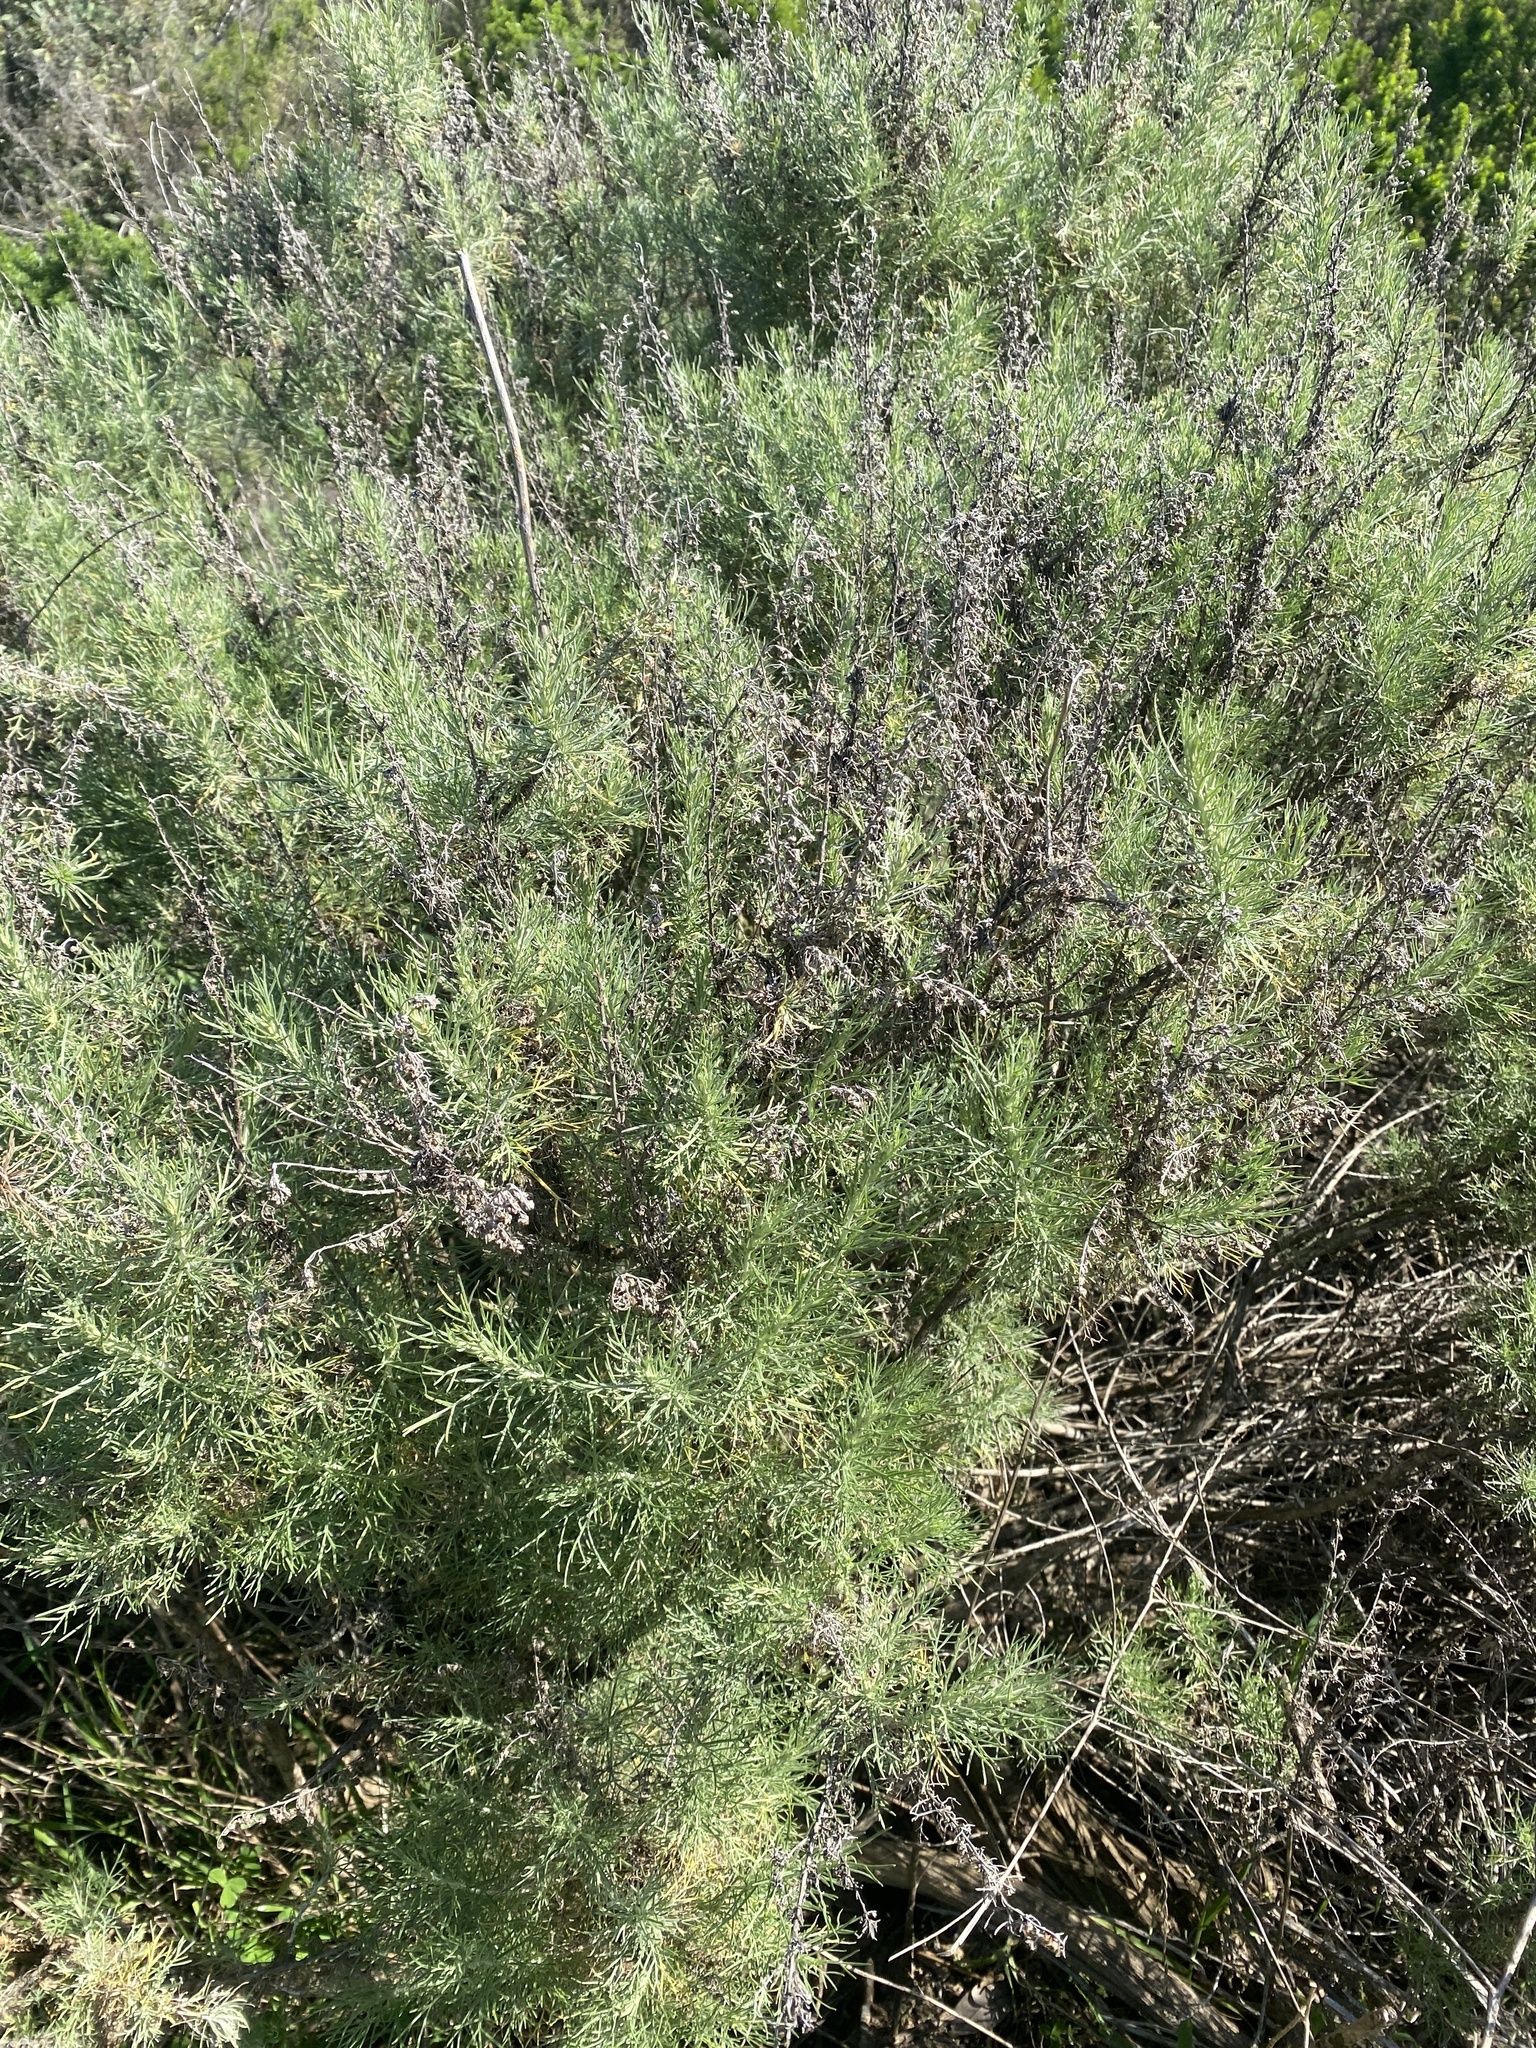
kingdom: Plantae
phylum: Tracheophyta
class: Magnoliopsida
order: Asterales
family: Asteraceae
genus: Artemisia
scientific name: Artemisia californica
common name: California sagebrush
